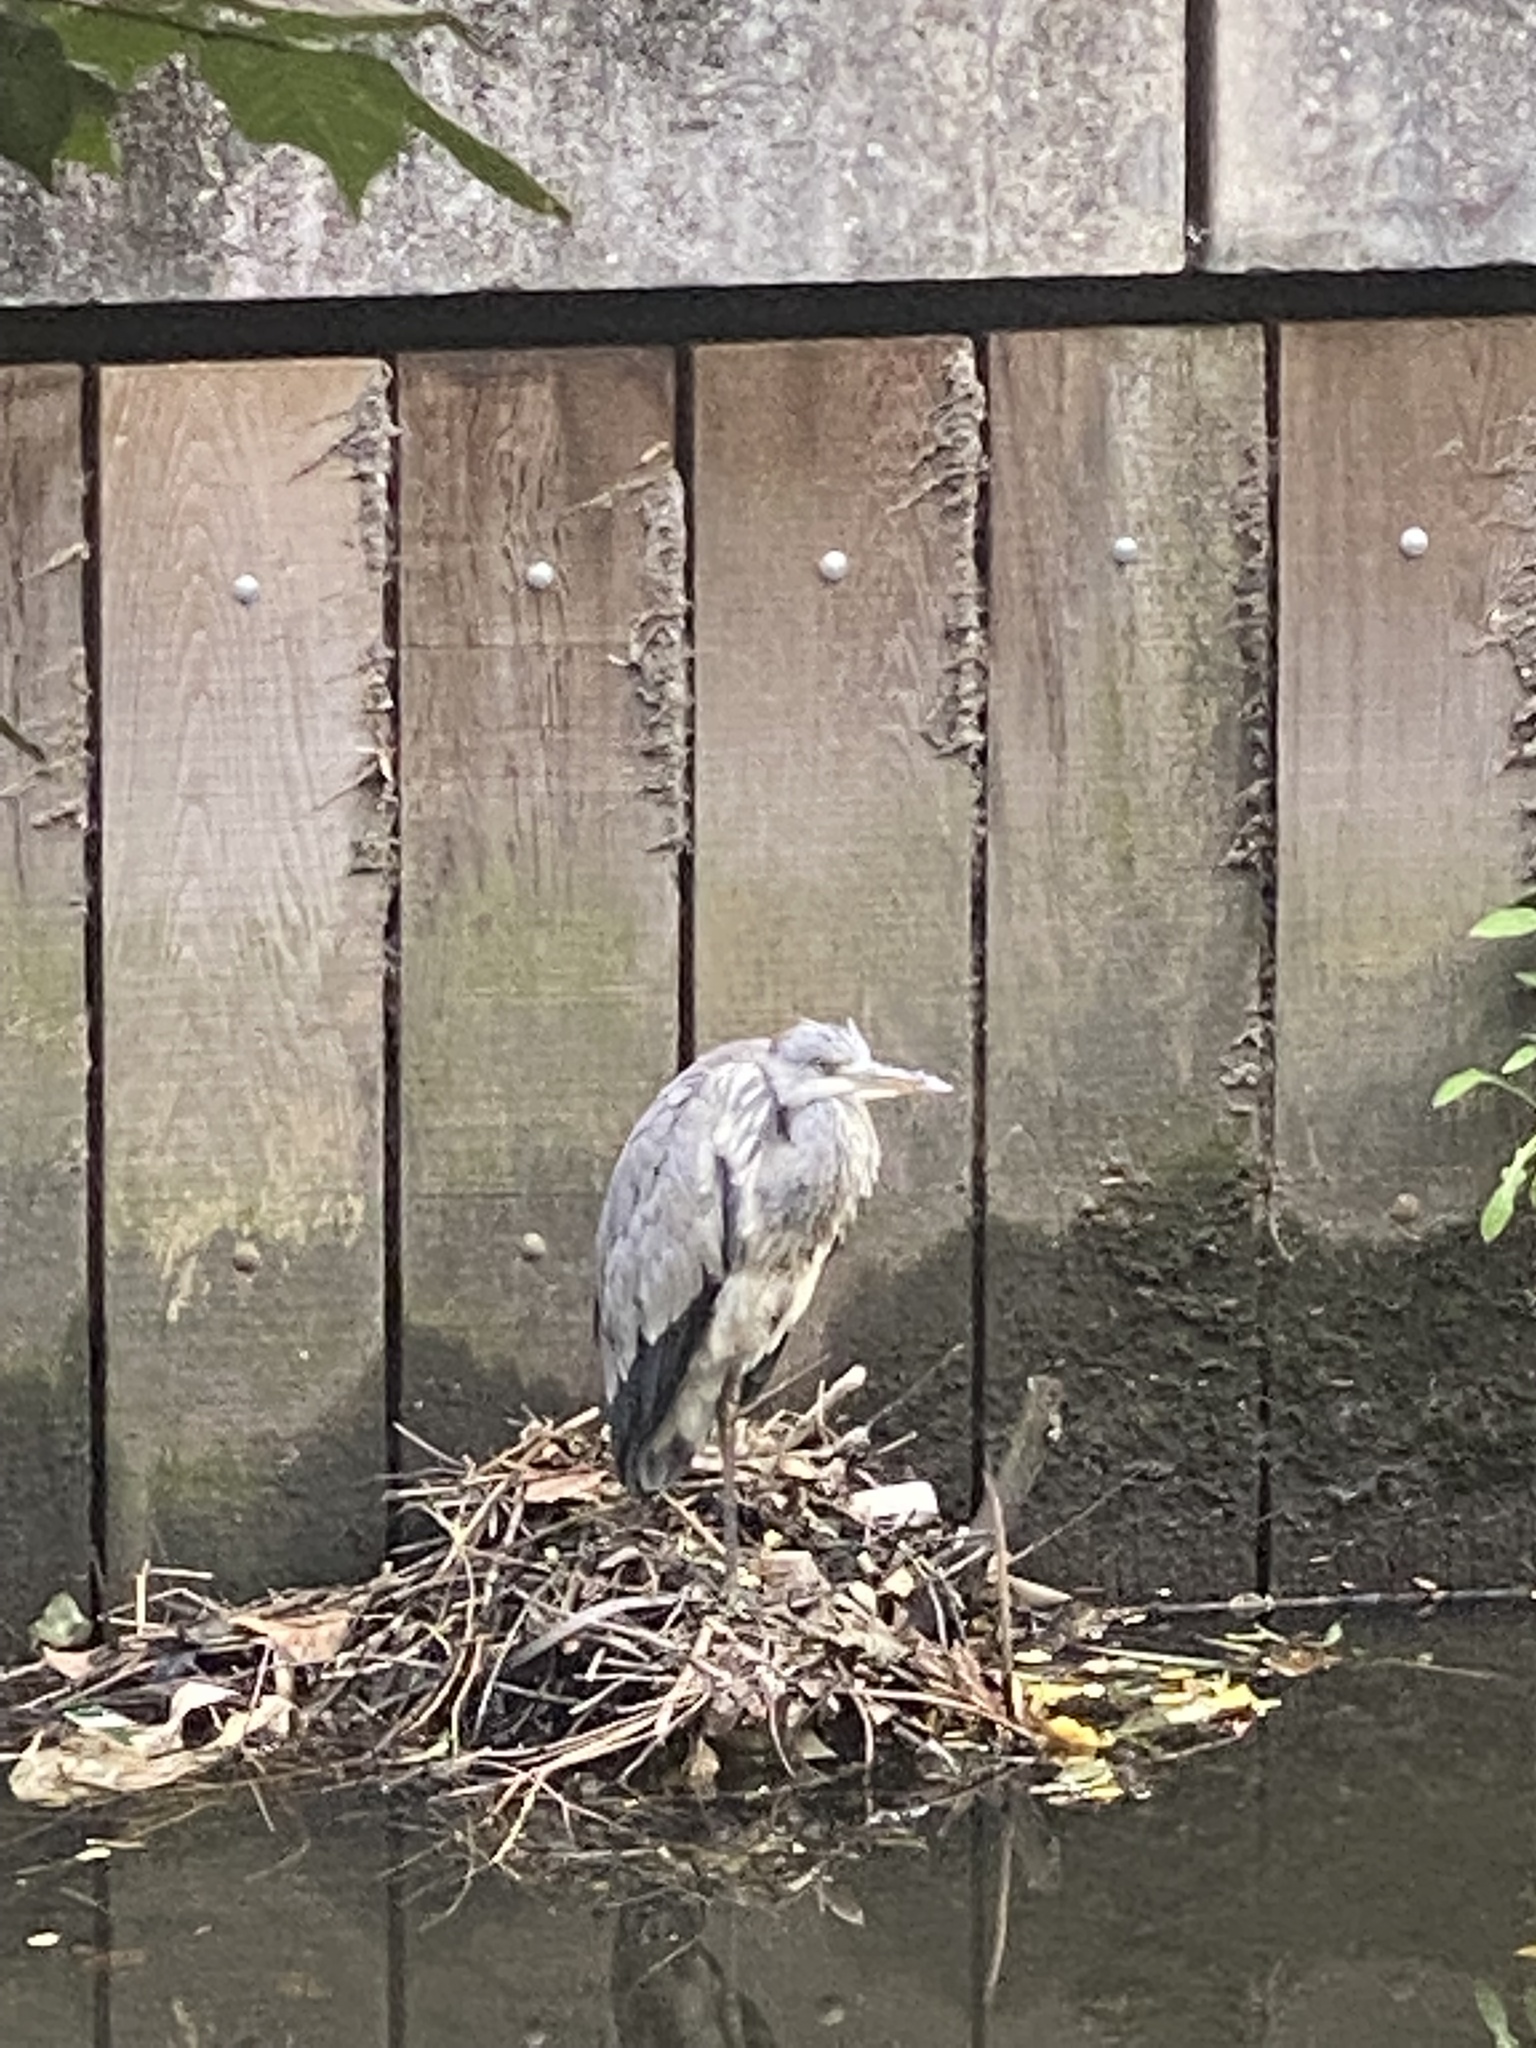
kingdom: Animalia
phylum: Chordata
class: Aves
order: Pelecaniformes
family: Ardeidae
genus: Ardea
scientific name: Ardea cinerea
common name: Grey heron
